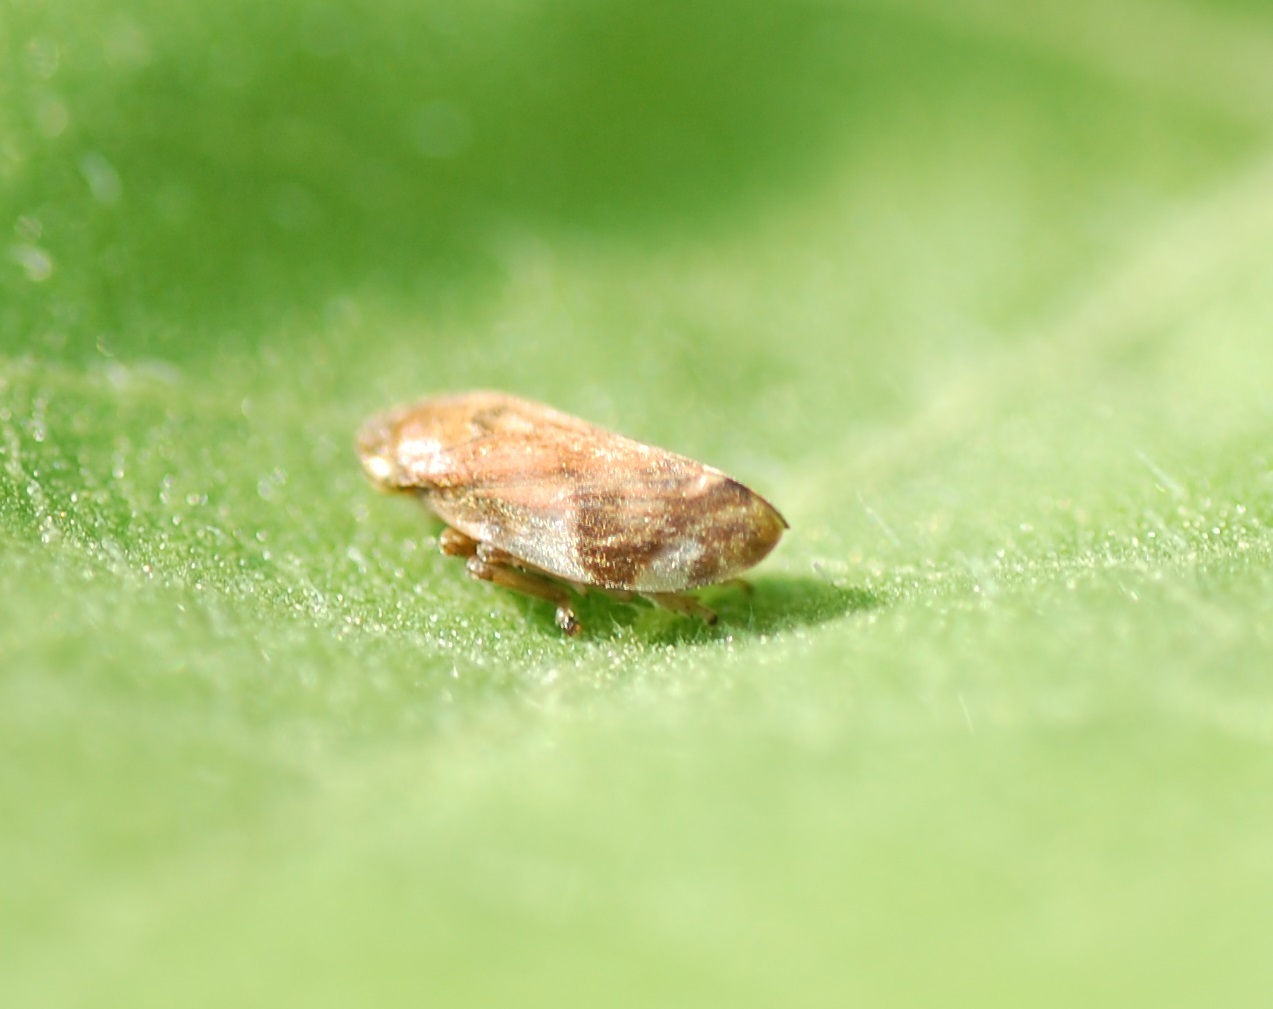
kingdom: Animalia
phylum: Arthropoda
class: Insecta
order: Hemiptera
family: Aphrophoridae
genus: Philaenus
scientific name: Philaenus spumarius
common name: Meadow spittlebug
